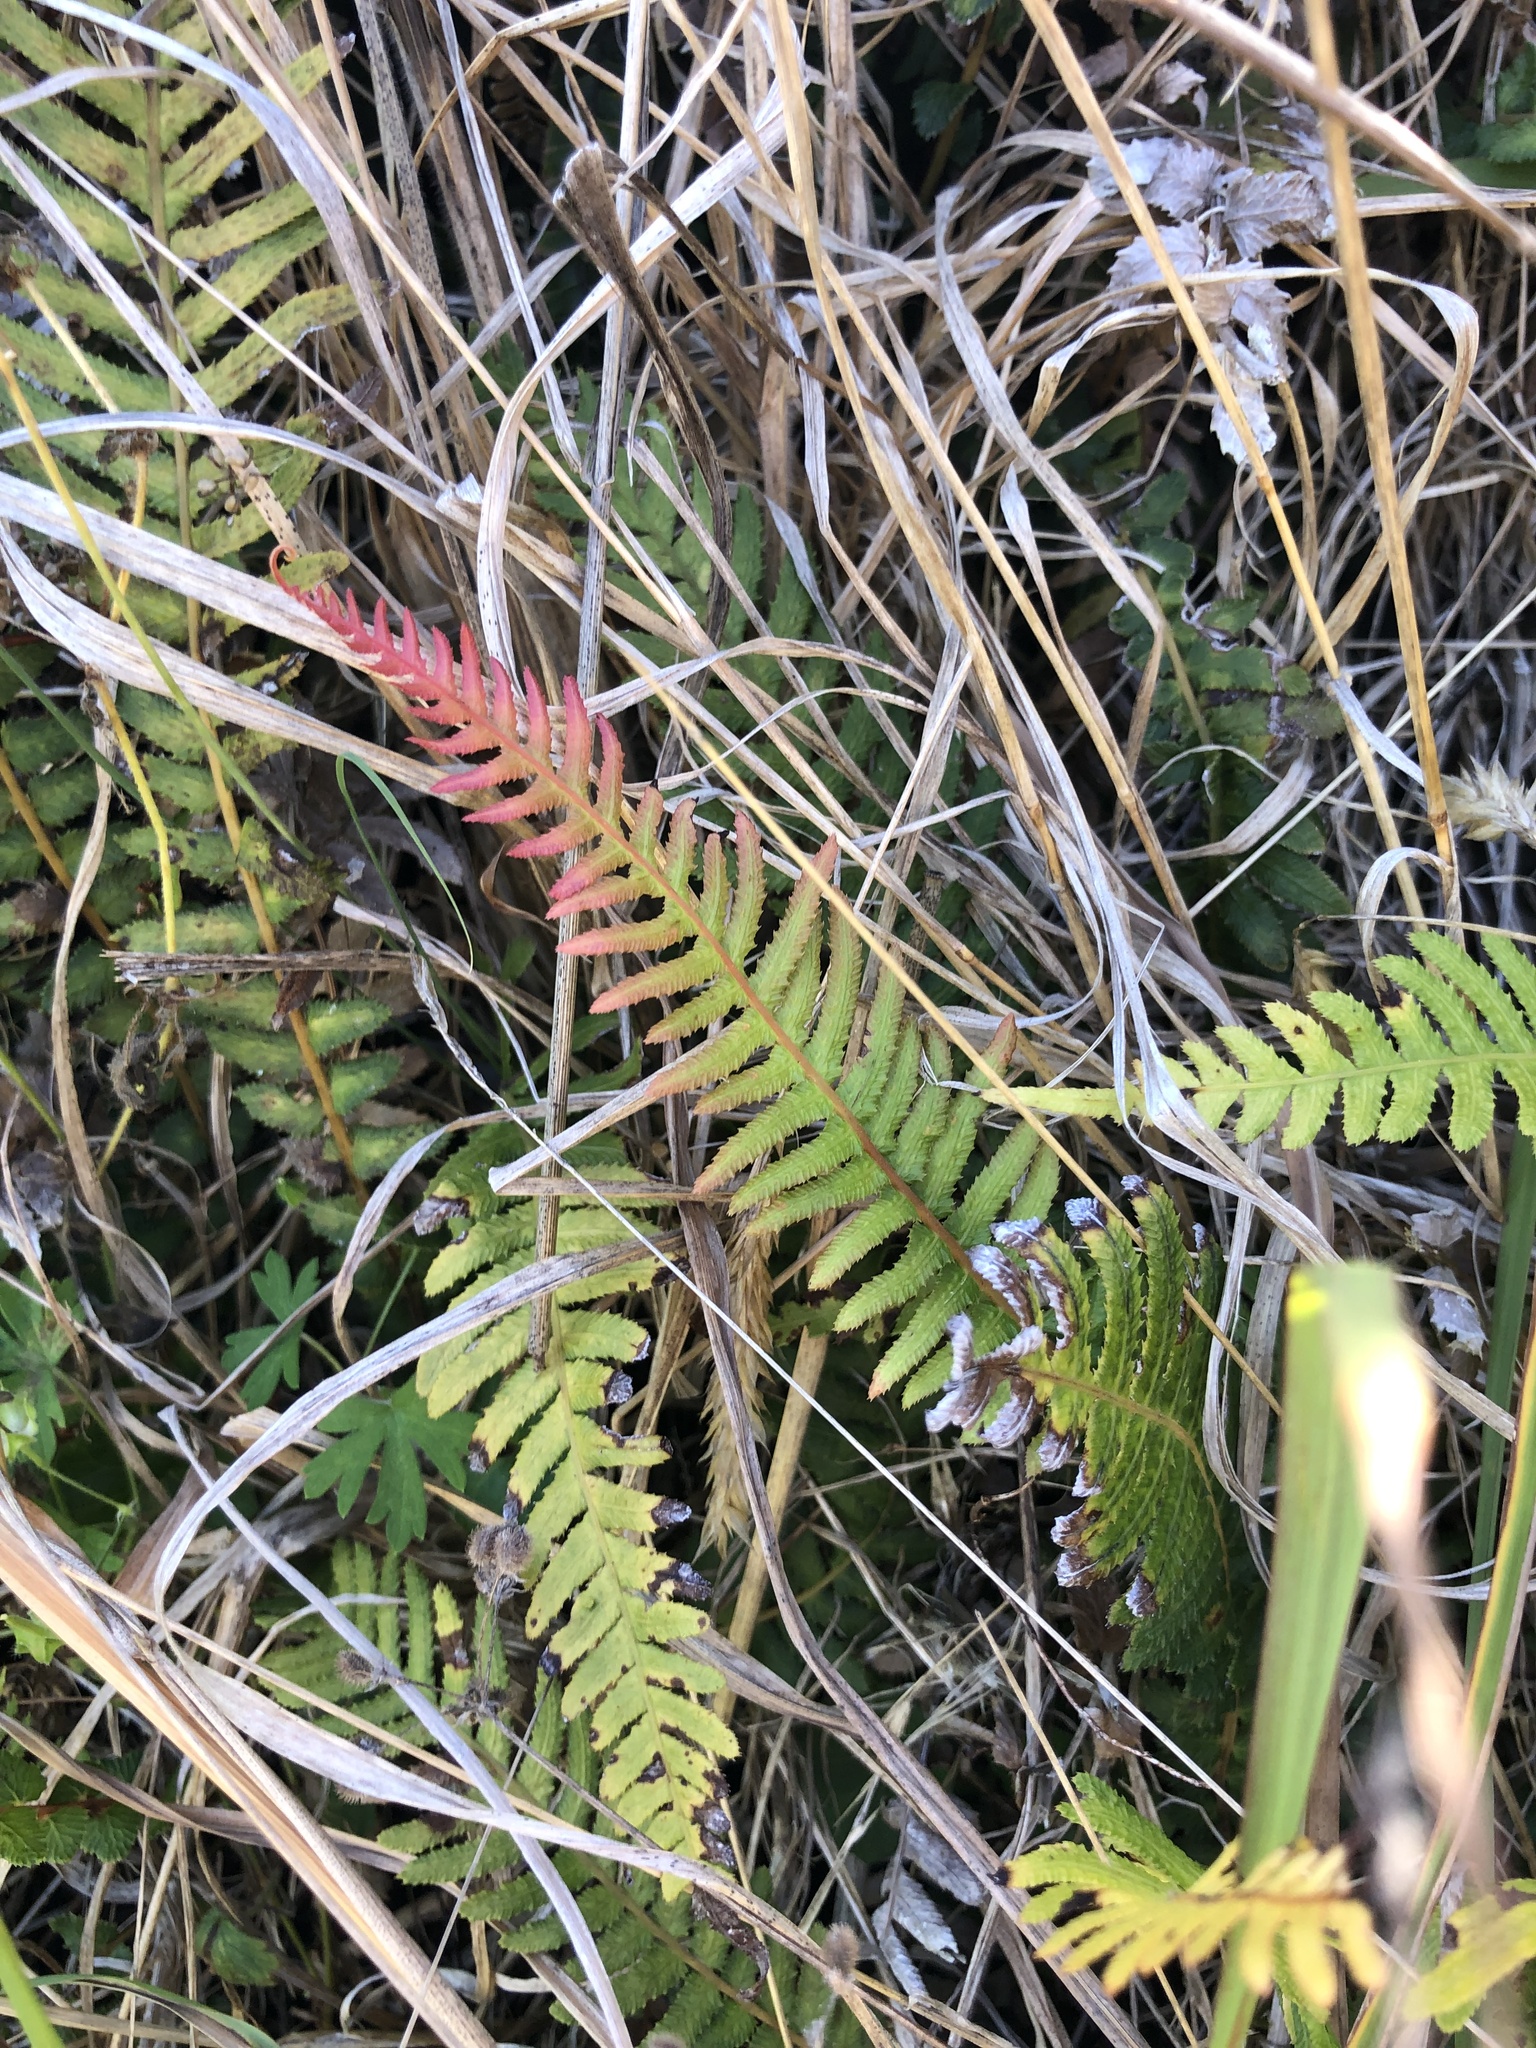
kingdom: Plantae
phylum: Tracheophyta
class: Polypodiopsida
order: Polypodiales
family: Blechnaceae
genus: Doodia
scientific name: Doodia australis
